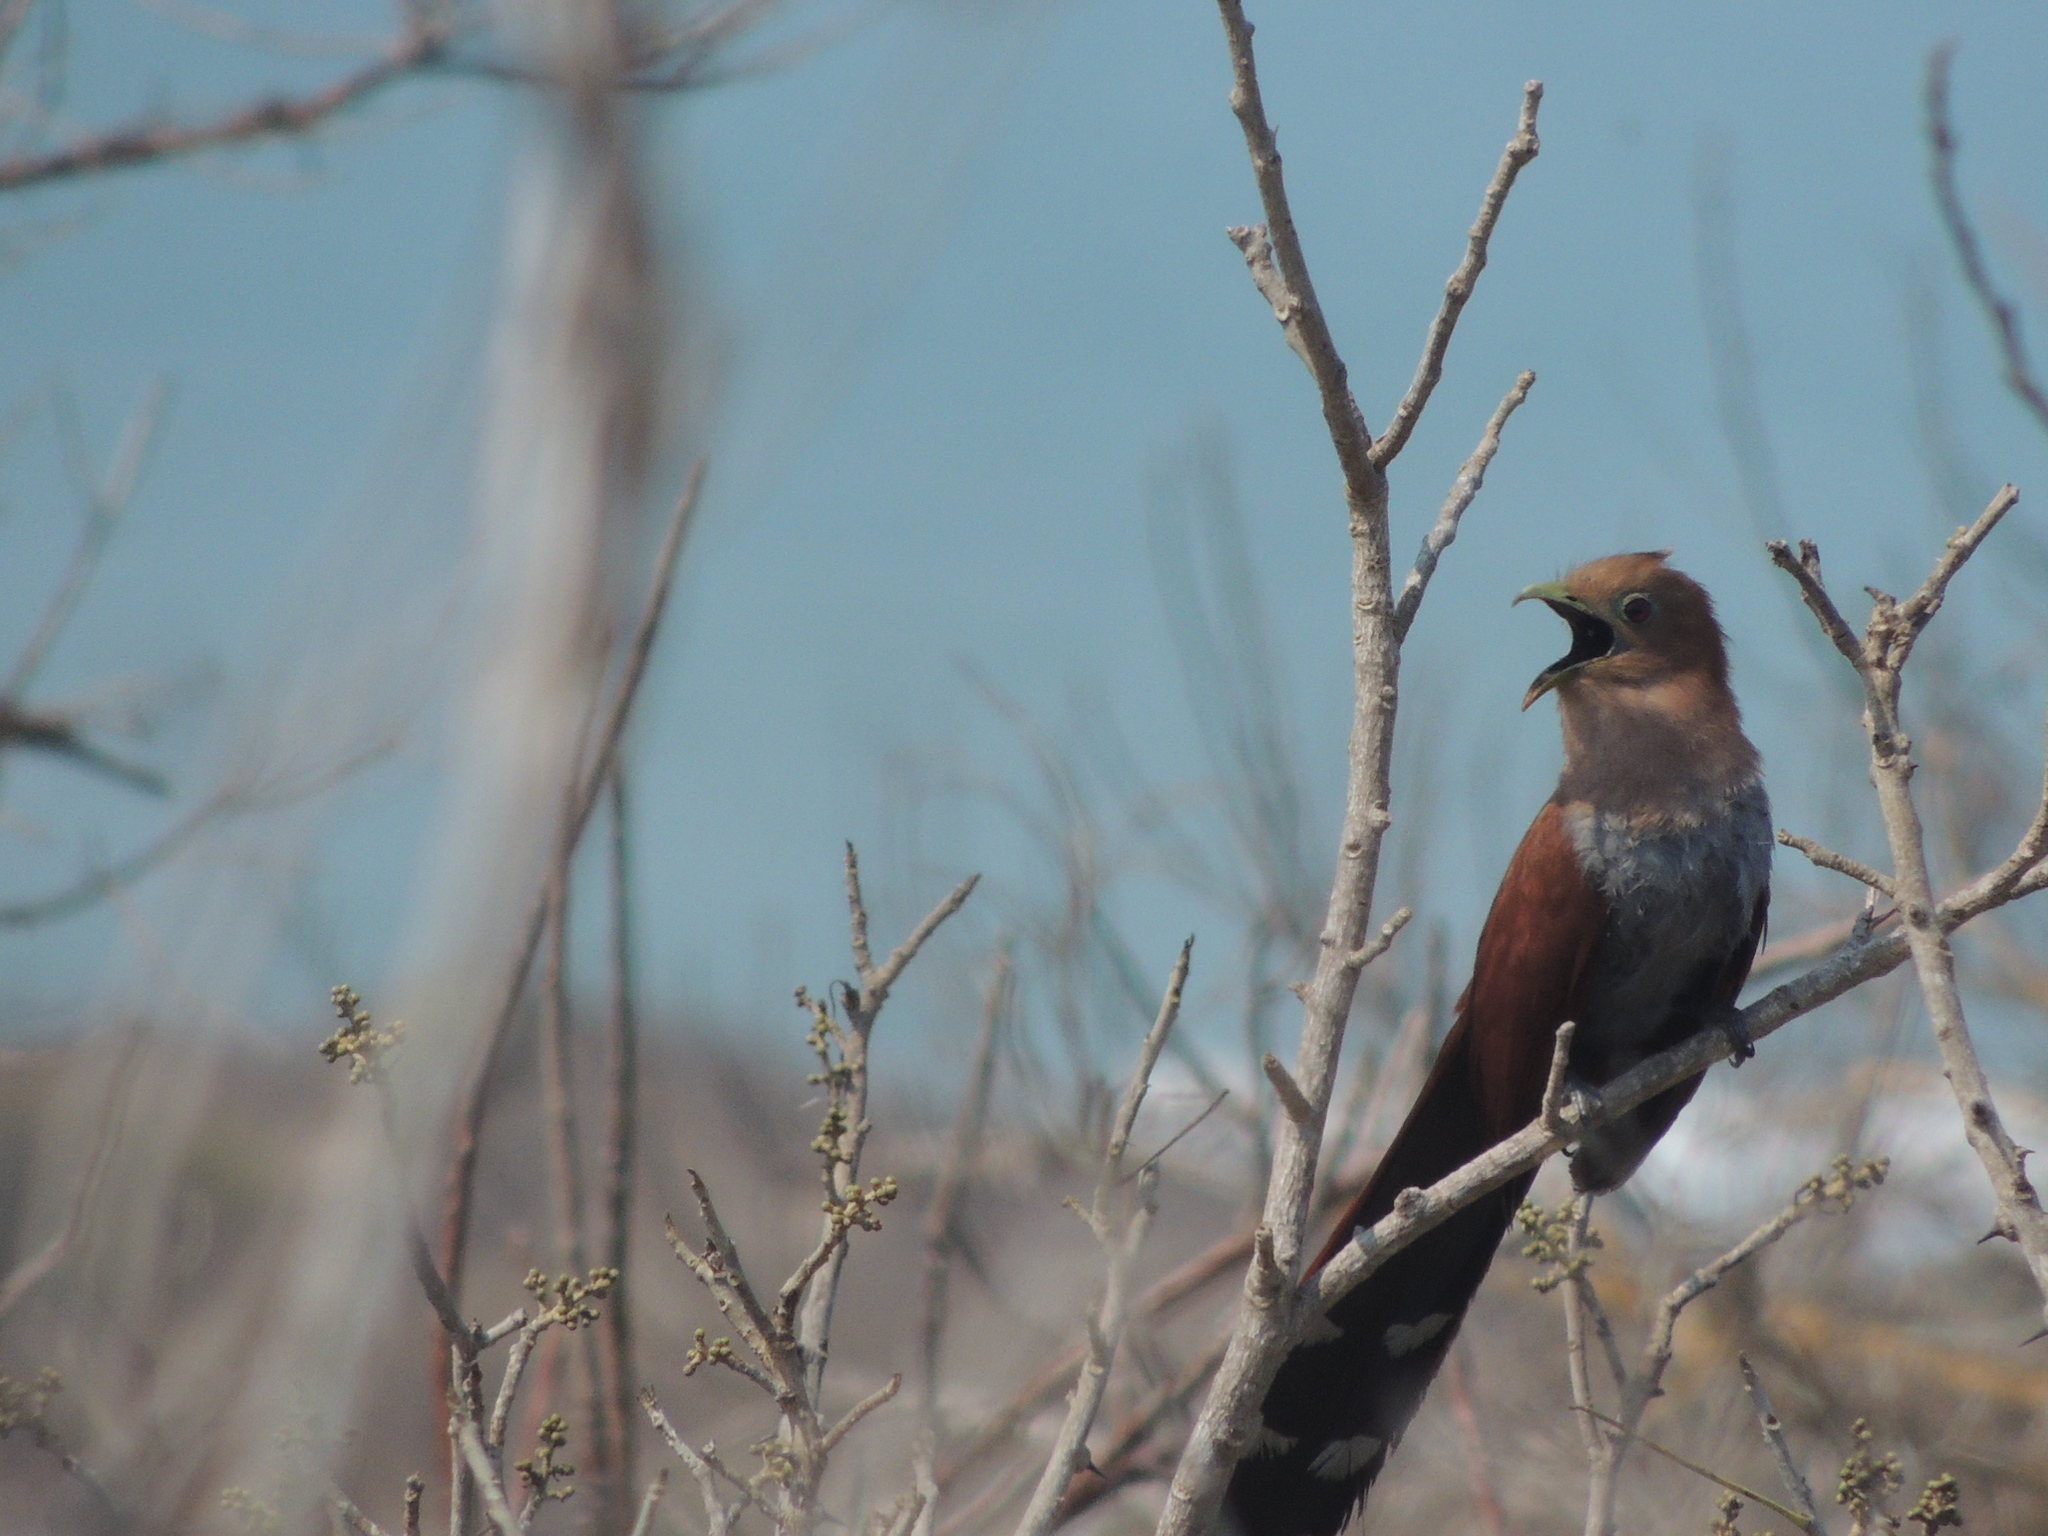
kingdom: Animalia
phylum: Chordata
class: Aves
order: Cuculiformes
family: Cuculidae
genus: Piaya
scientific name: Piaya cayana
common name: Squirrel cuckoo
